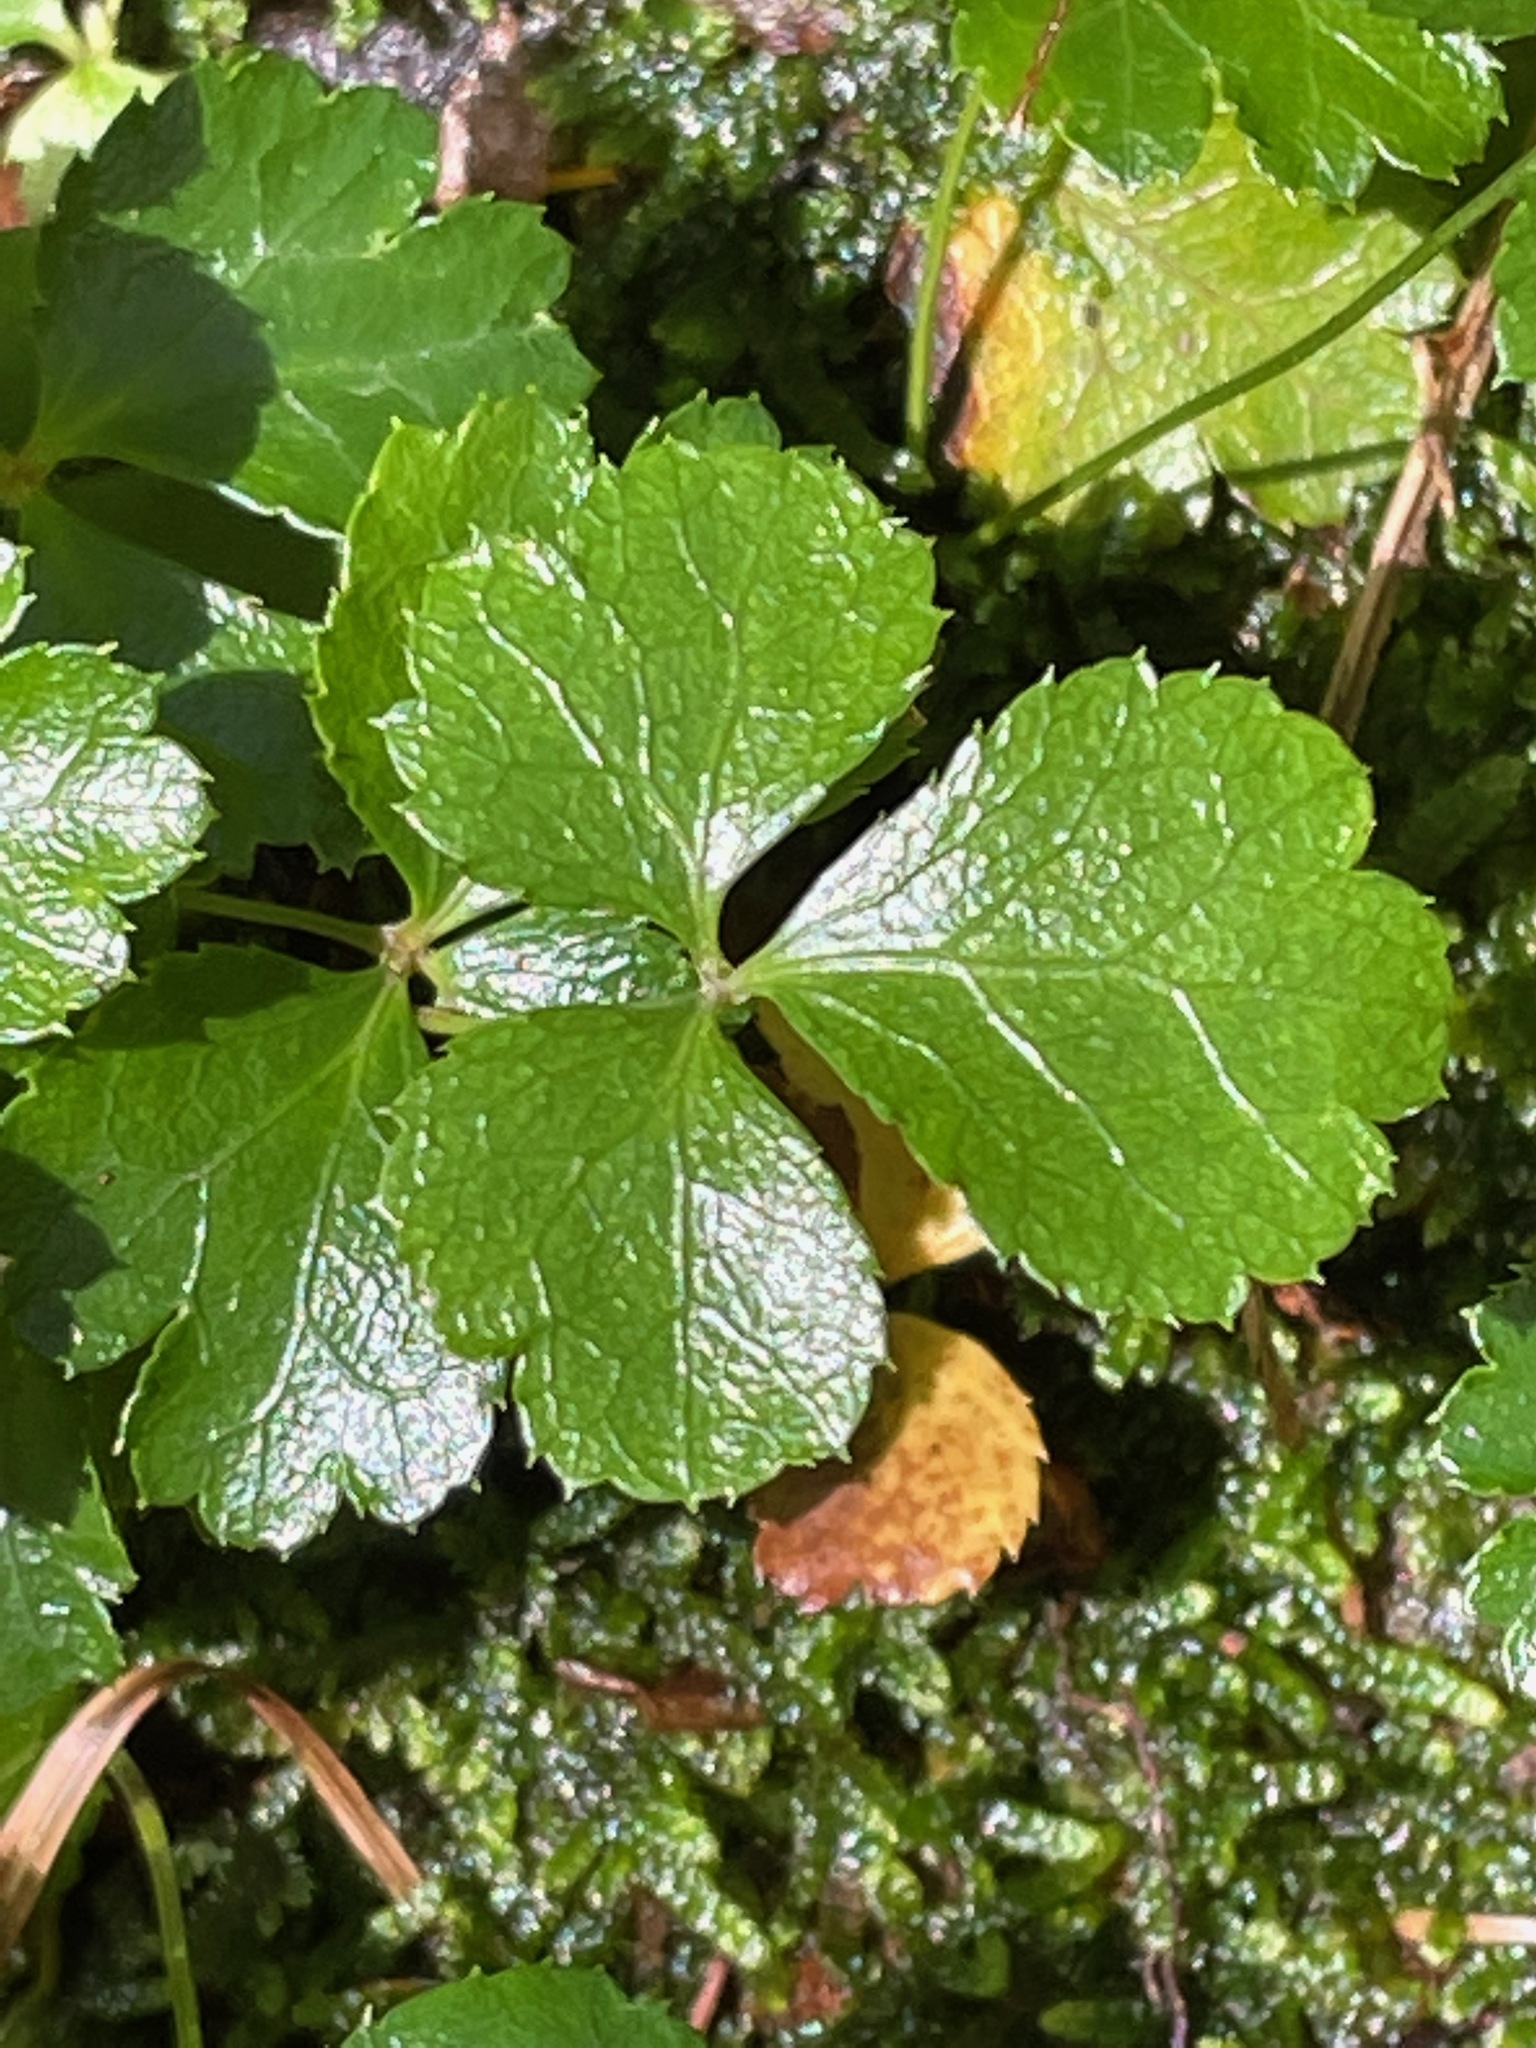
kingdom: Plantae
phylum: Tracheophyta
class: Magnoliopsida
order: Ranunculales
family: Ranunculaceae
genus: Coptis
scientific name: Coptis trifolia
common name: Canker-root
